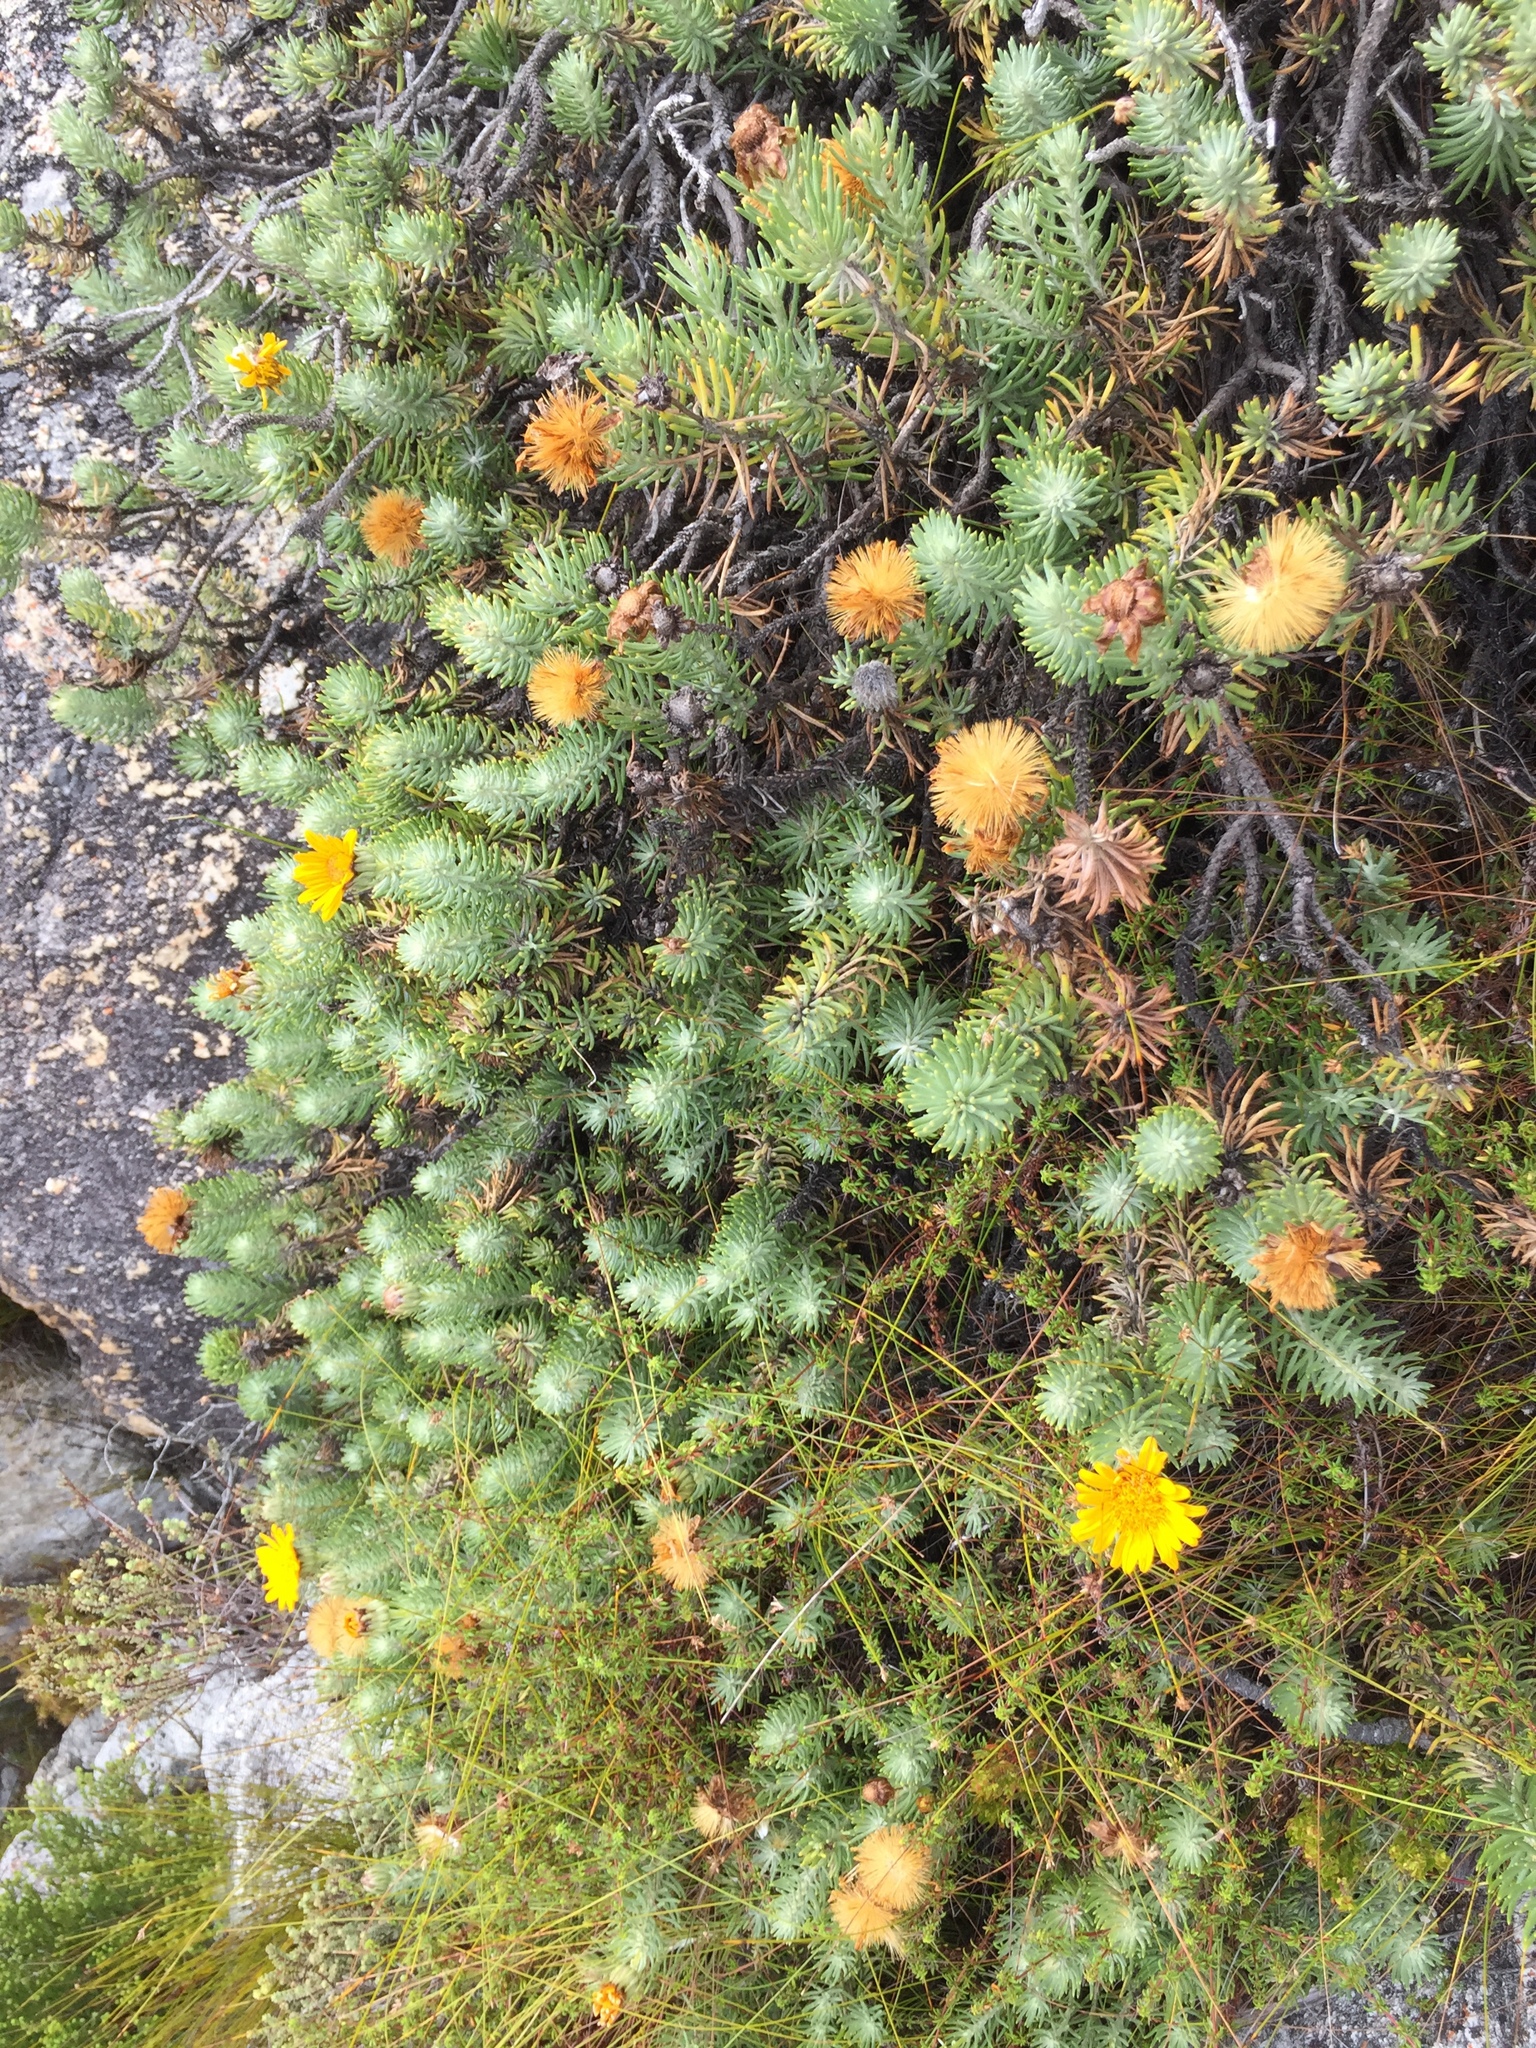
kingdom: Plantae
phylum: Tracheophyta
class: Magnoliopsida
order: Asterales
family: Asteraceae
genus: Heterolepis
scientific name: Heterolepis aliena
